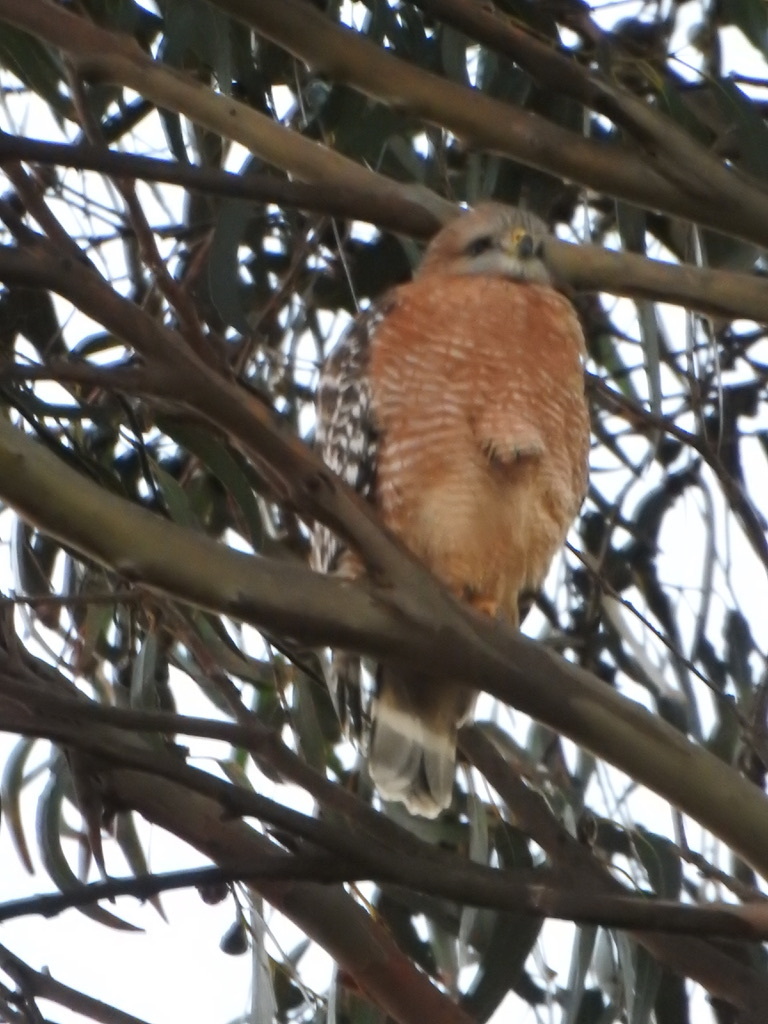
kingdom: Animalia
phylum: Chordata
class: Aves
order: Accipitriformes
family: Accipitridae
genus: Buteo
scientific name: Buteo lineatus
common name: Red-shouldered hawk
